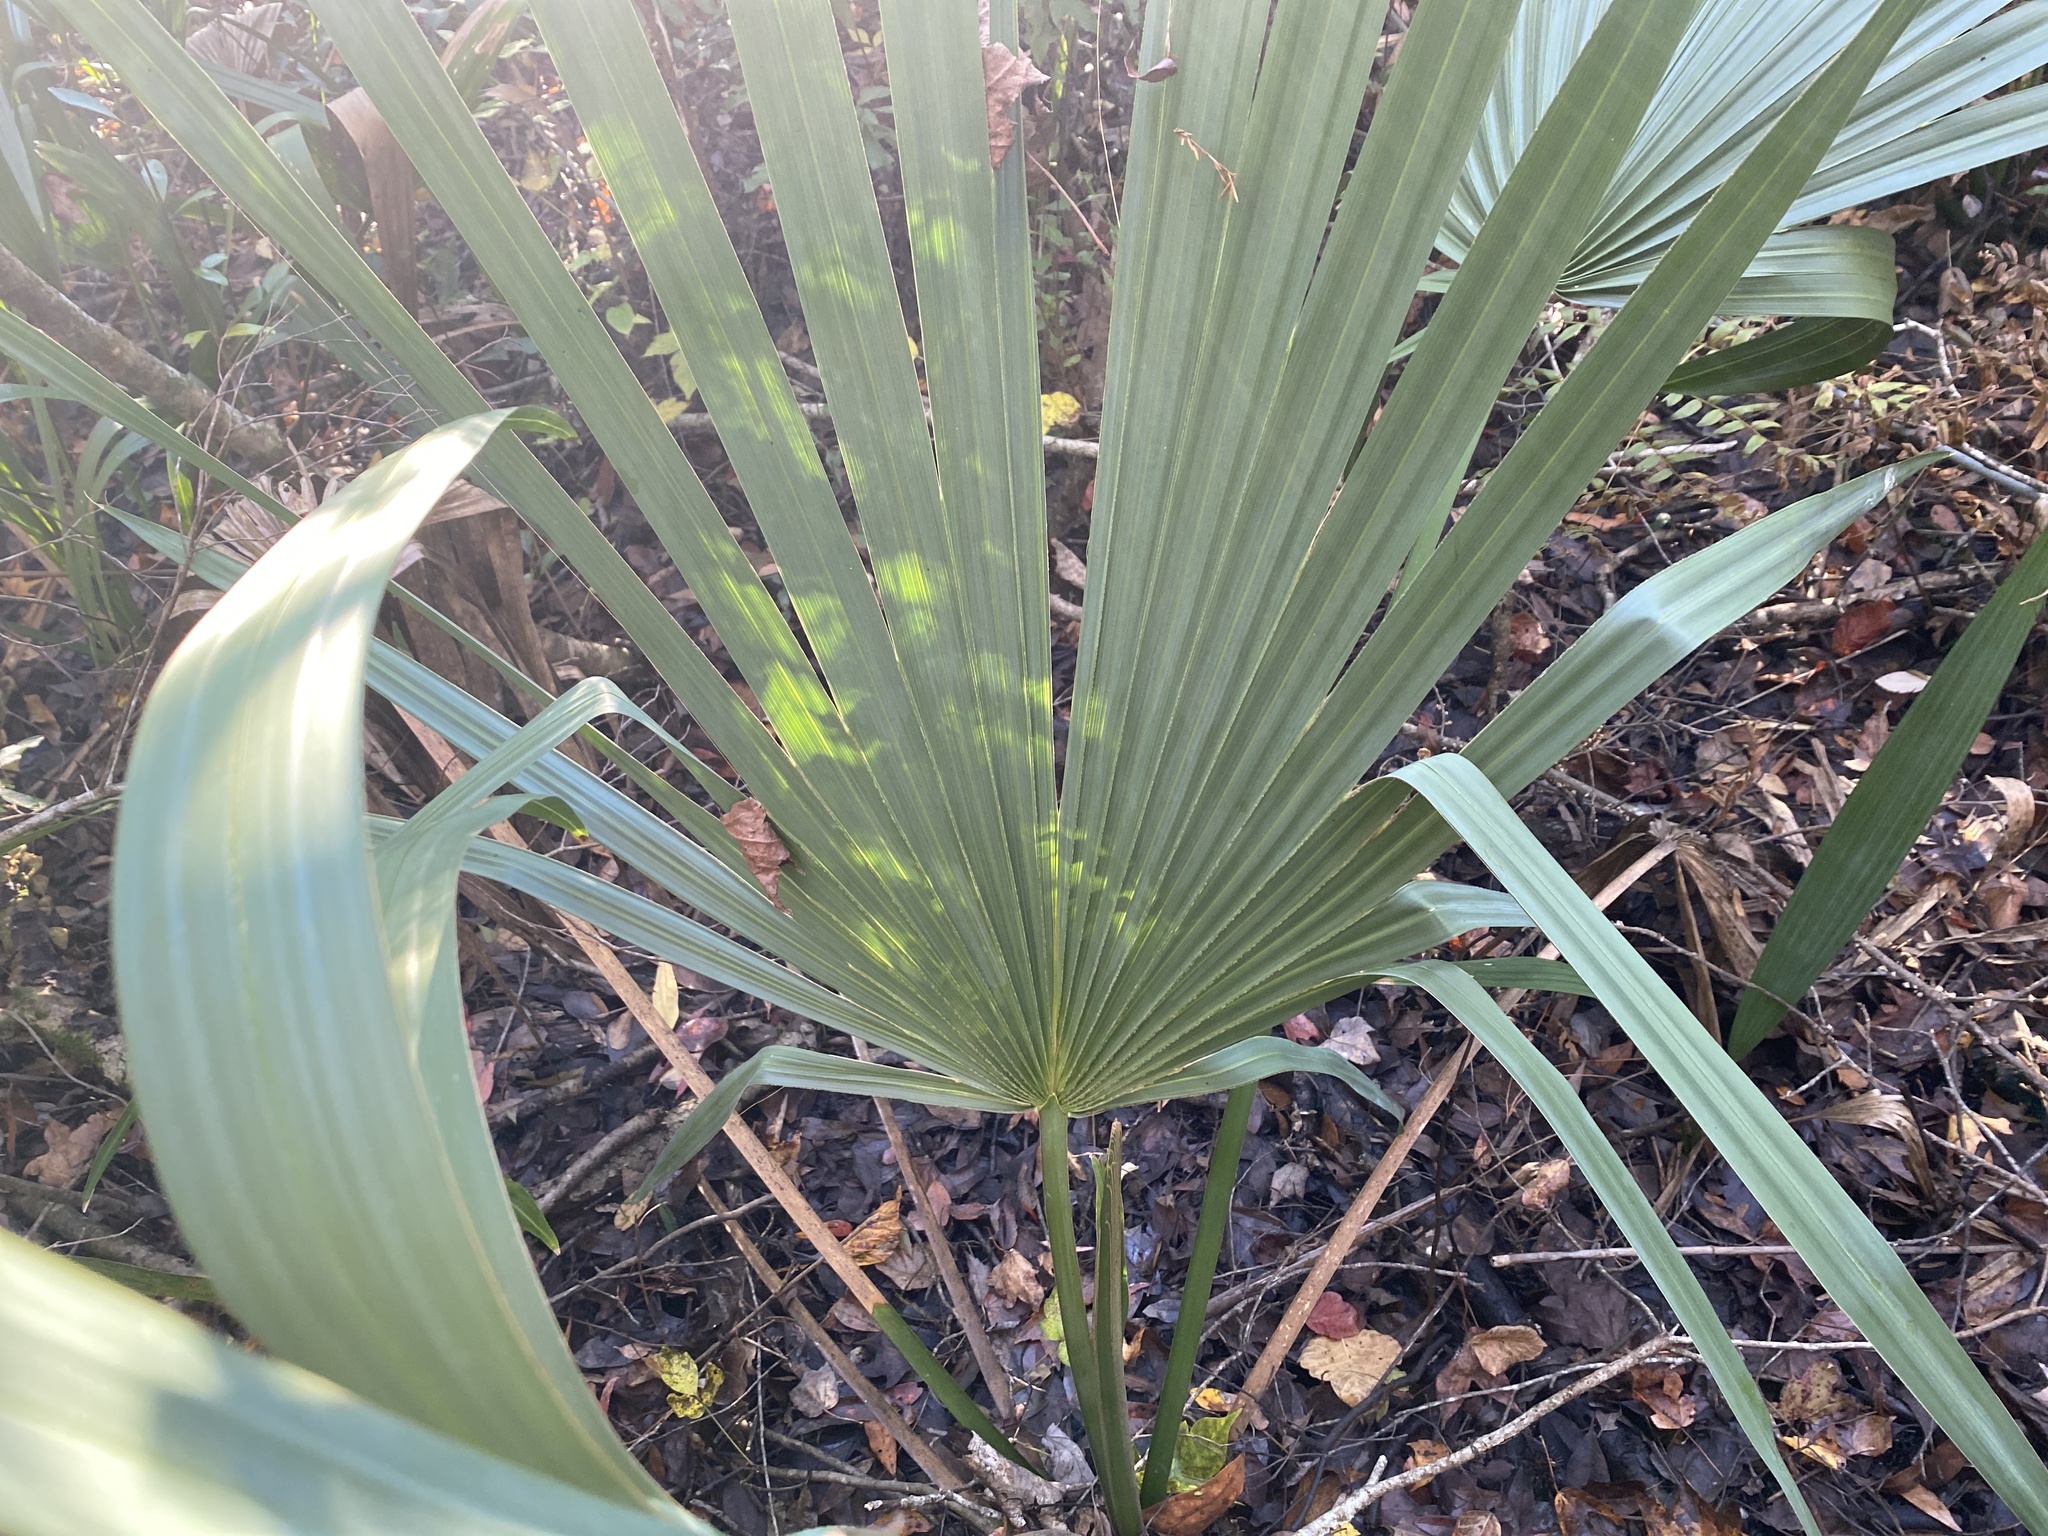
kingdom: Plantae
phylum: Tracheophyta
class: Liliopsida
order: Arecales
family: Arecaceae
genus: Sabal
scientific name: Sabal minor
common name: Dwarf palmetto
